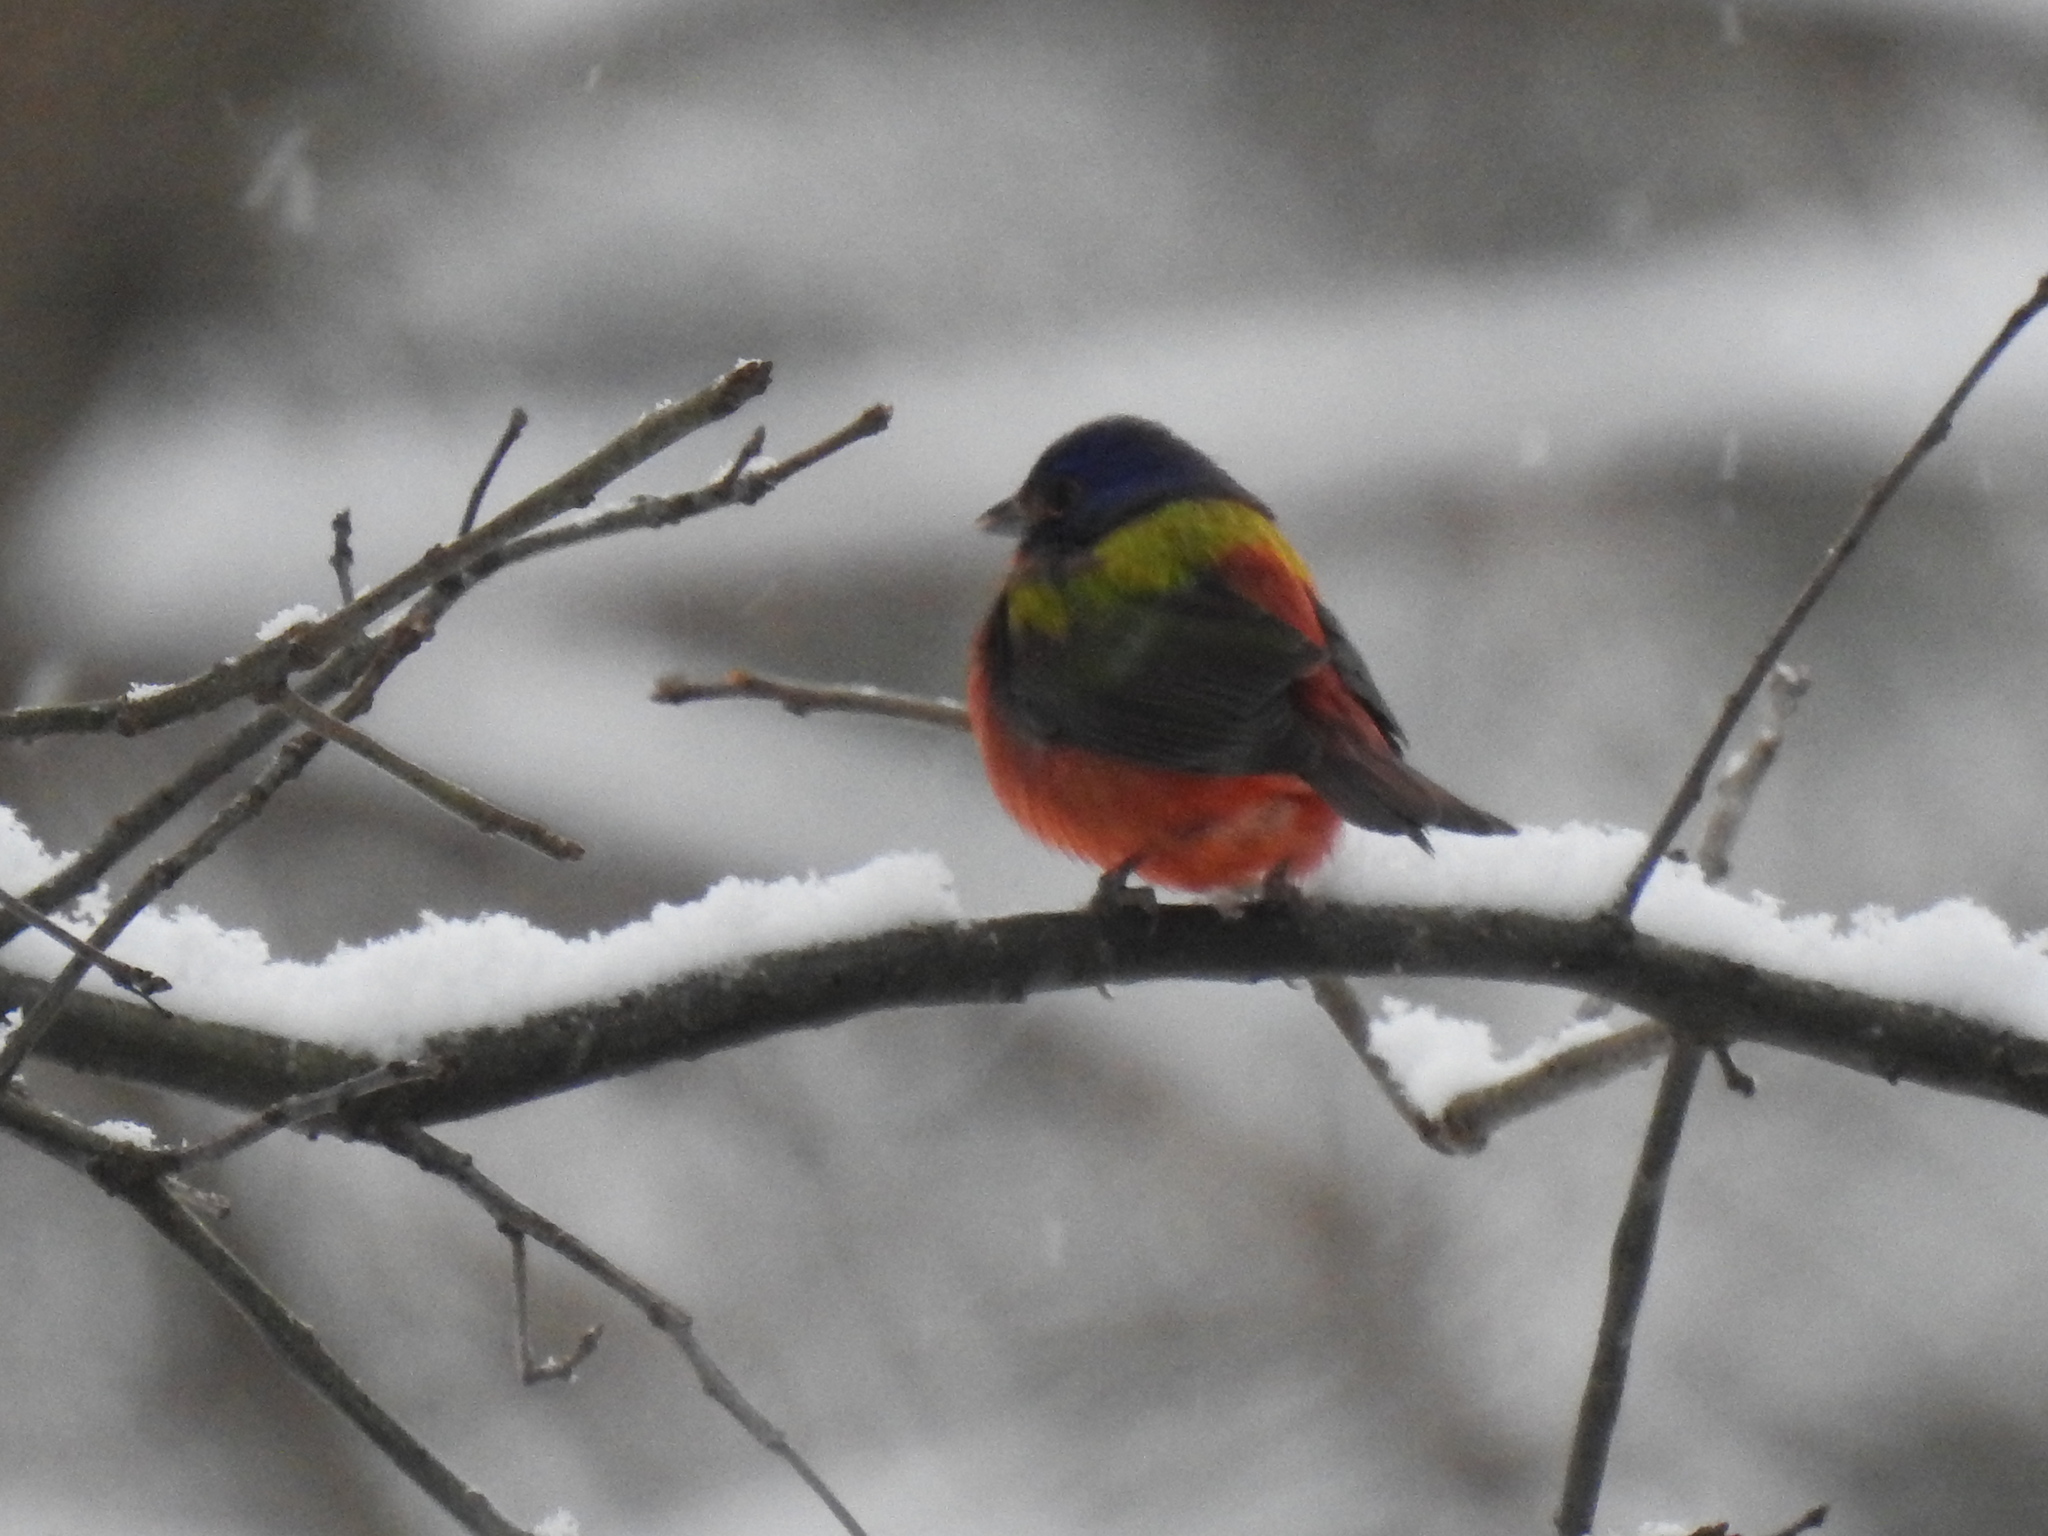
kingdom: Animalia
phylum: Chordata
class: Aves
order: Passeriformes
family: Cardinalidae
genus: Passerina
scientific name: Passerina ciris
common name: Painted bunting
